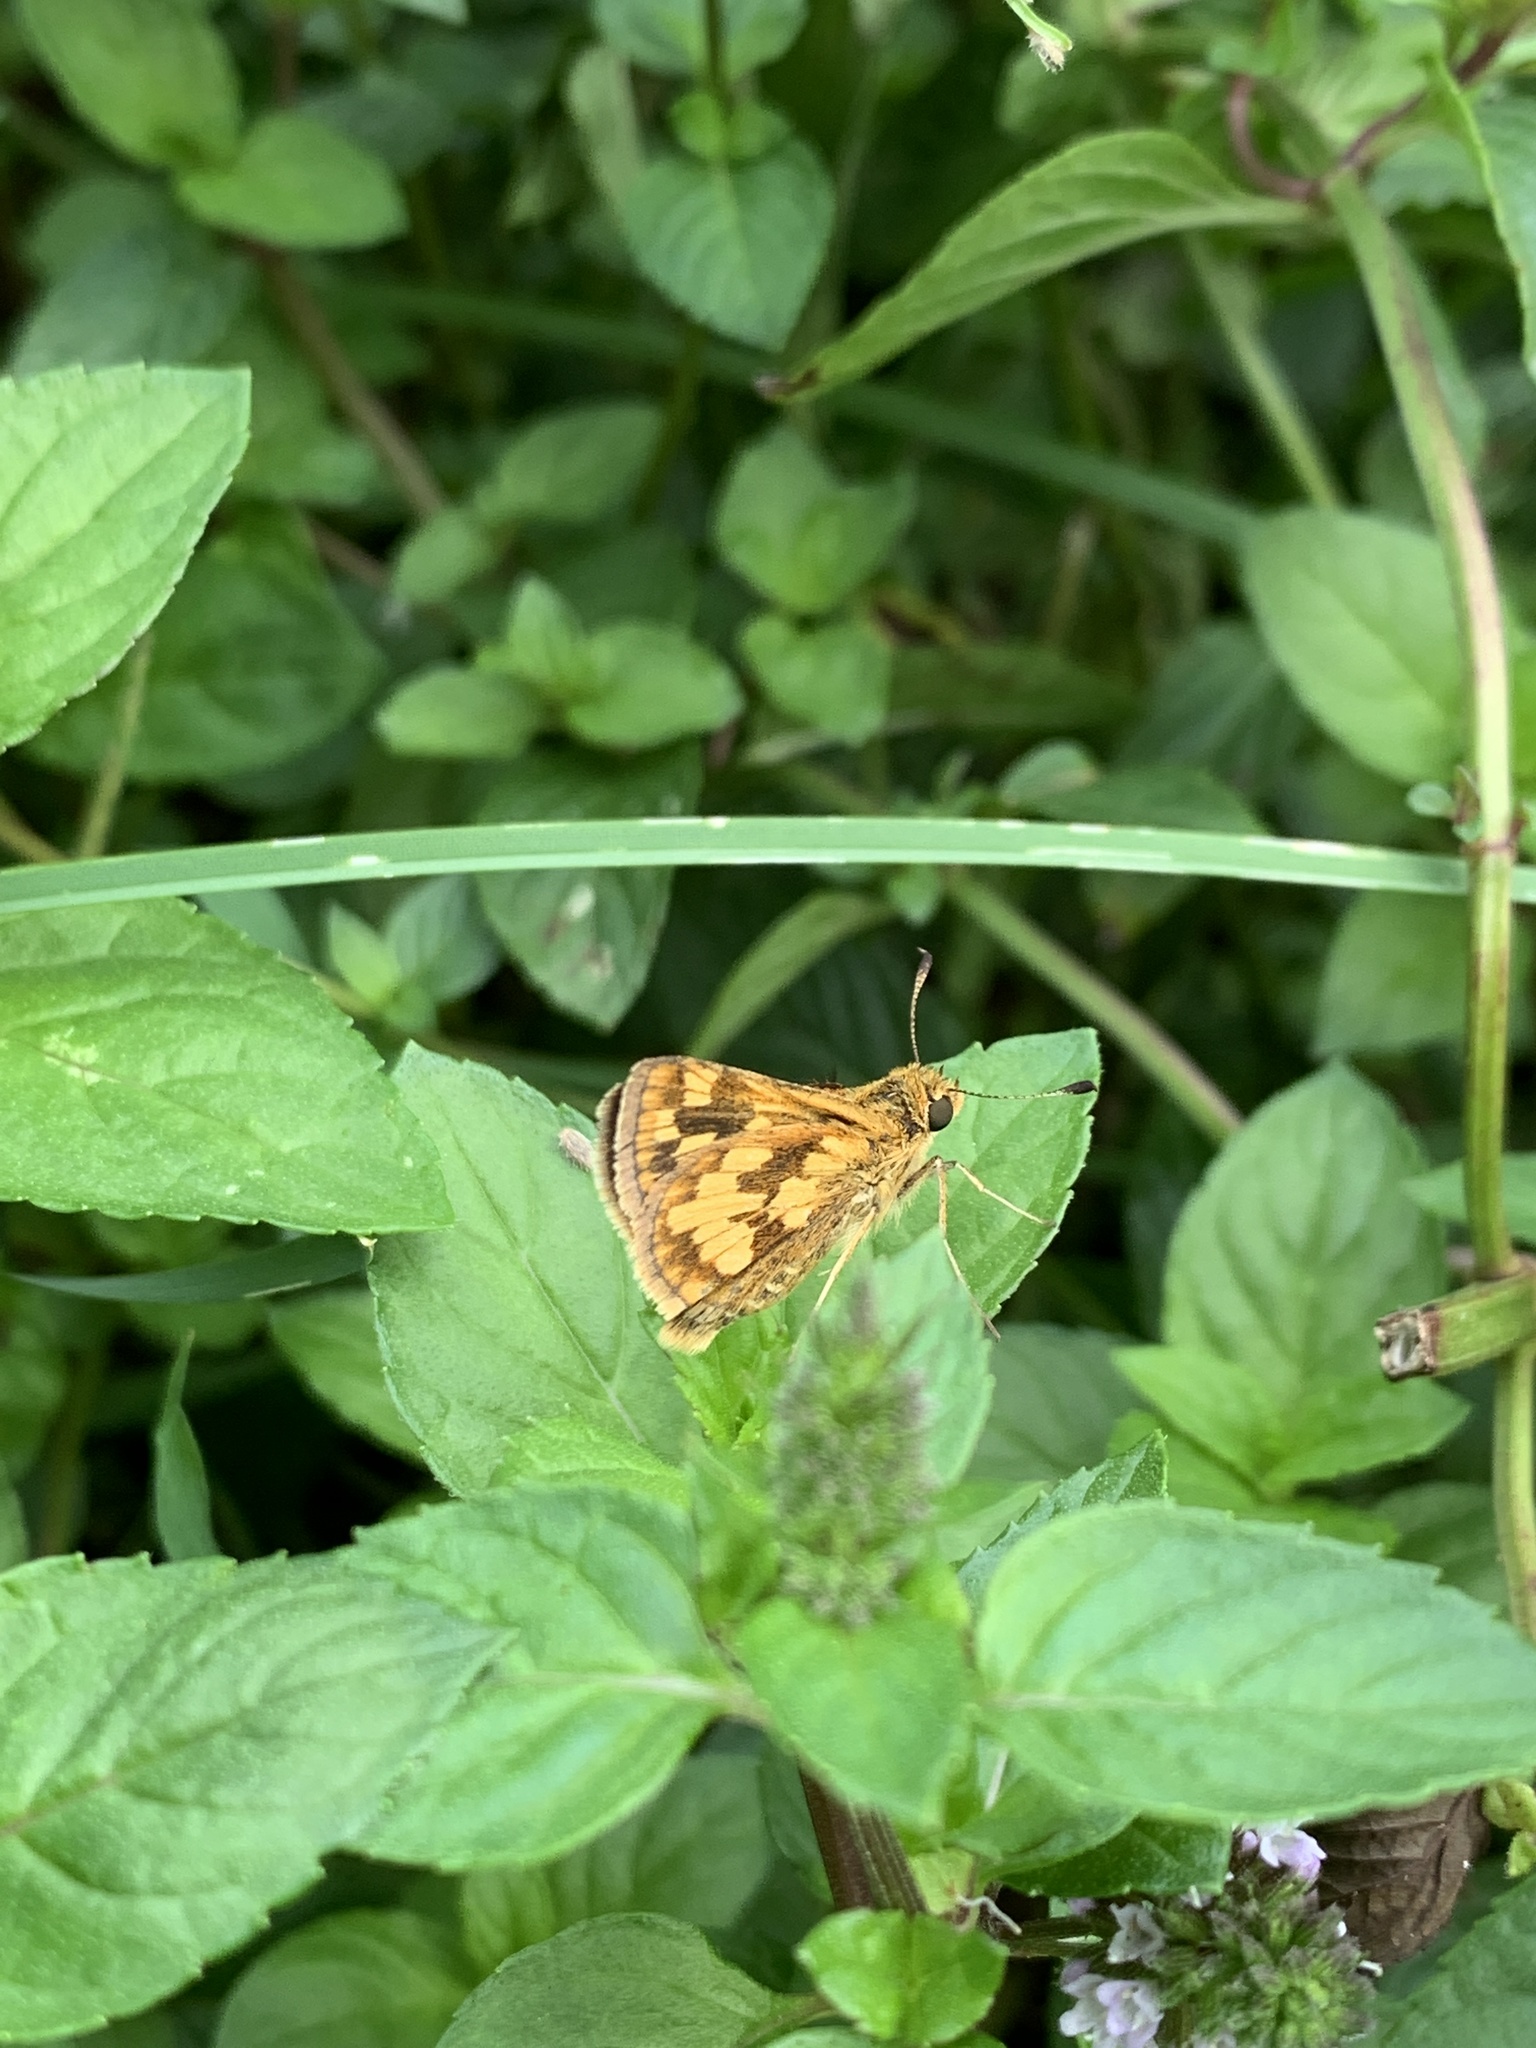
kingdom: Animalia
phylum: Arthropoda
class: Insecta
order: Lepidoptera
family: Hesperiidae
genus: Polites
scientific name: Polites coras
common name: Peck's skipper
